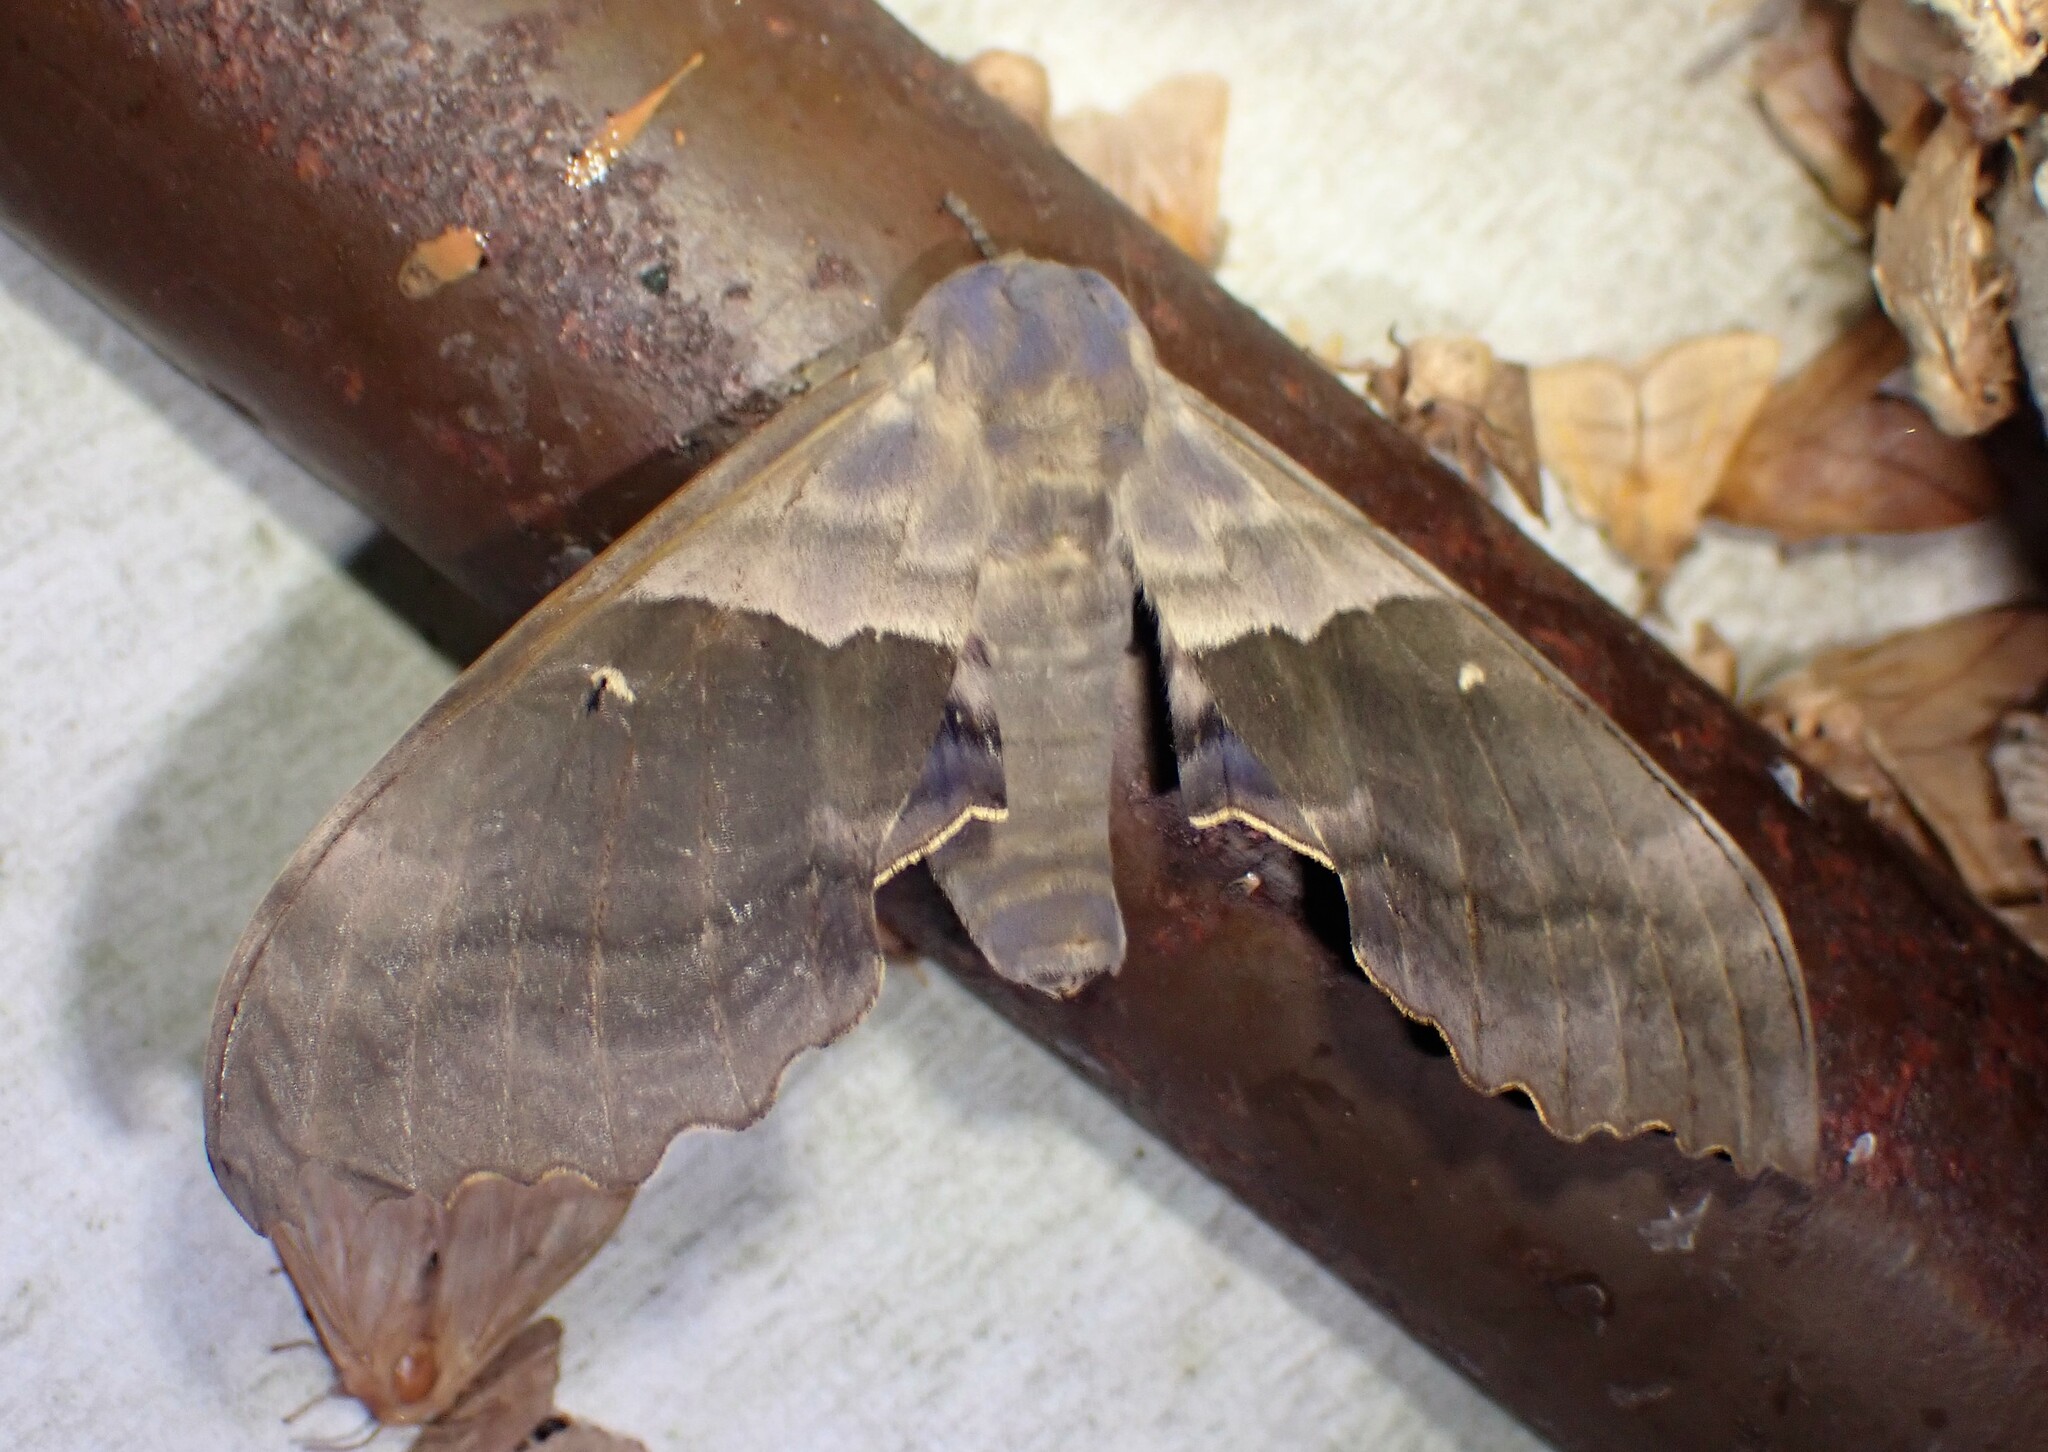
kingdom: Animalia
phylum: Arthropoda
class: Insecta
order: Lepidoptera
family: Sphingidae
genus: Pachysphinx
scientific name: Pachysphinx modesta
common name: Big poplar sphinx
